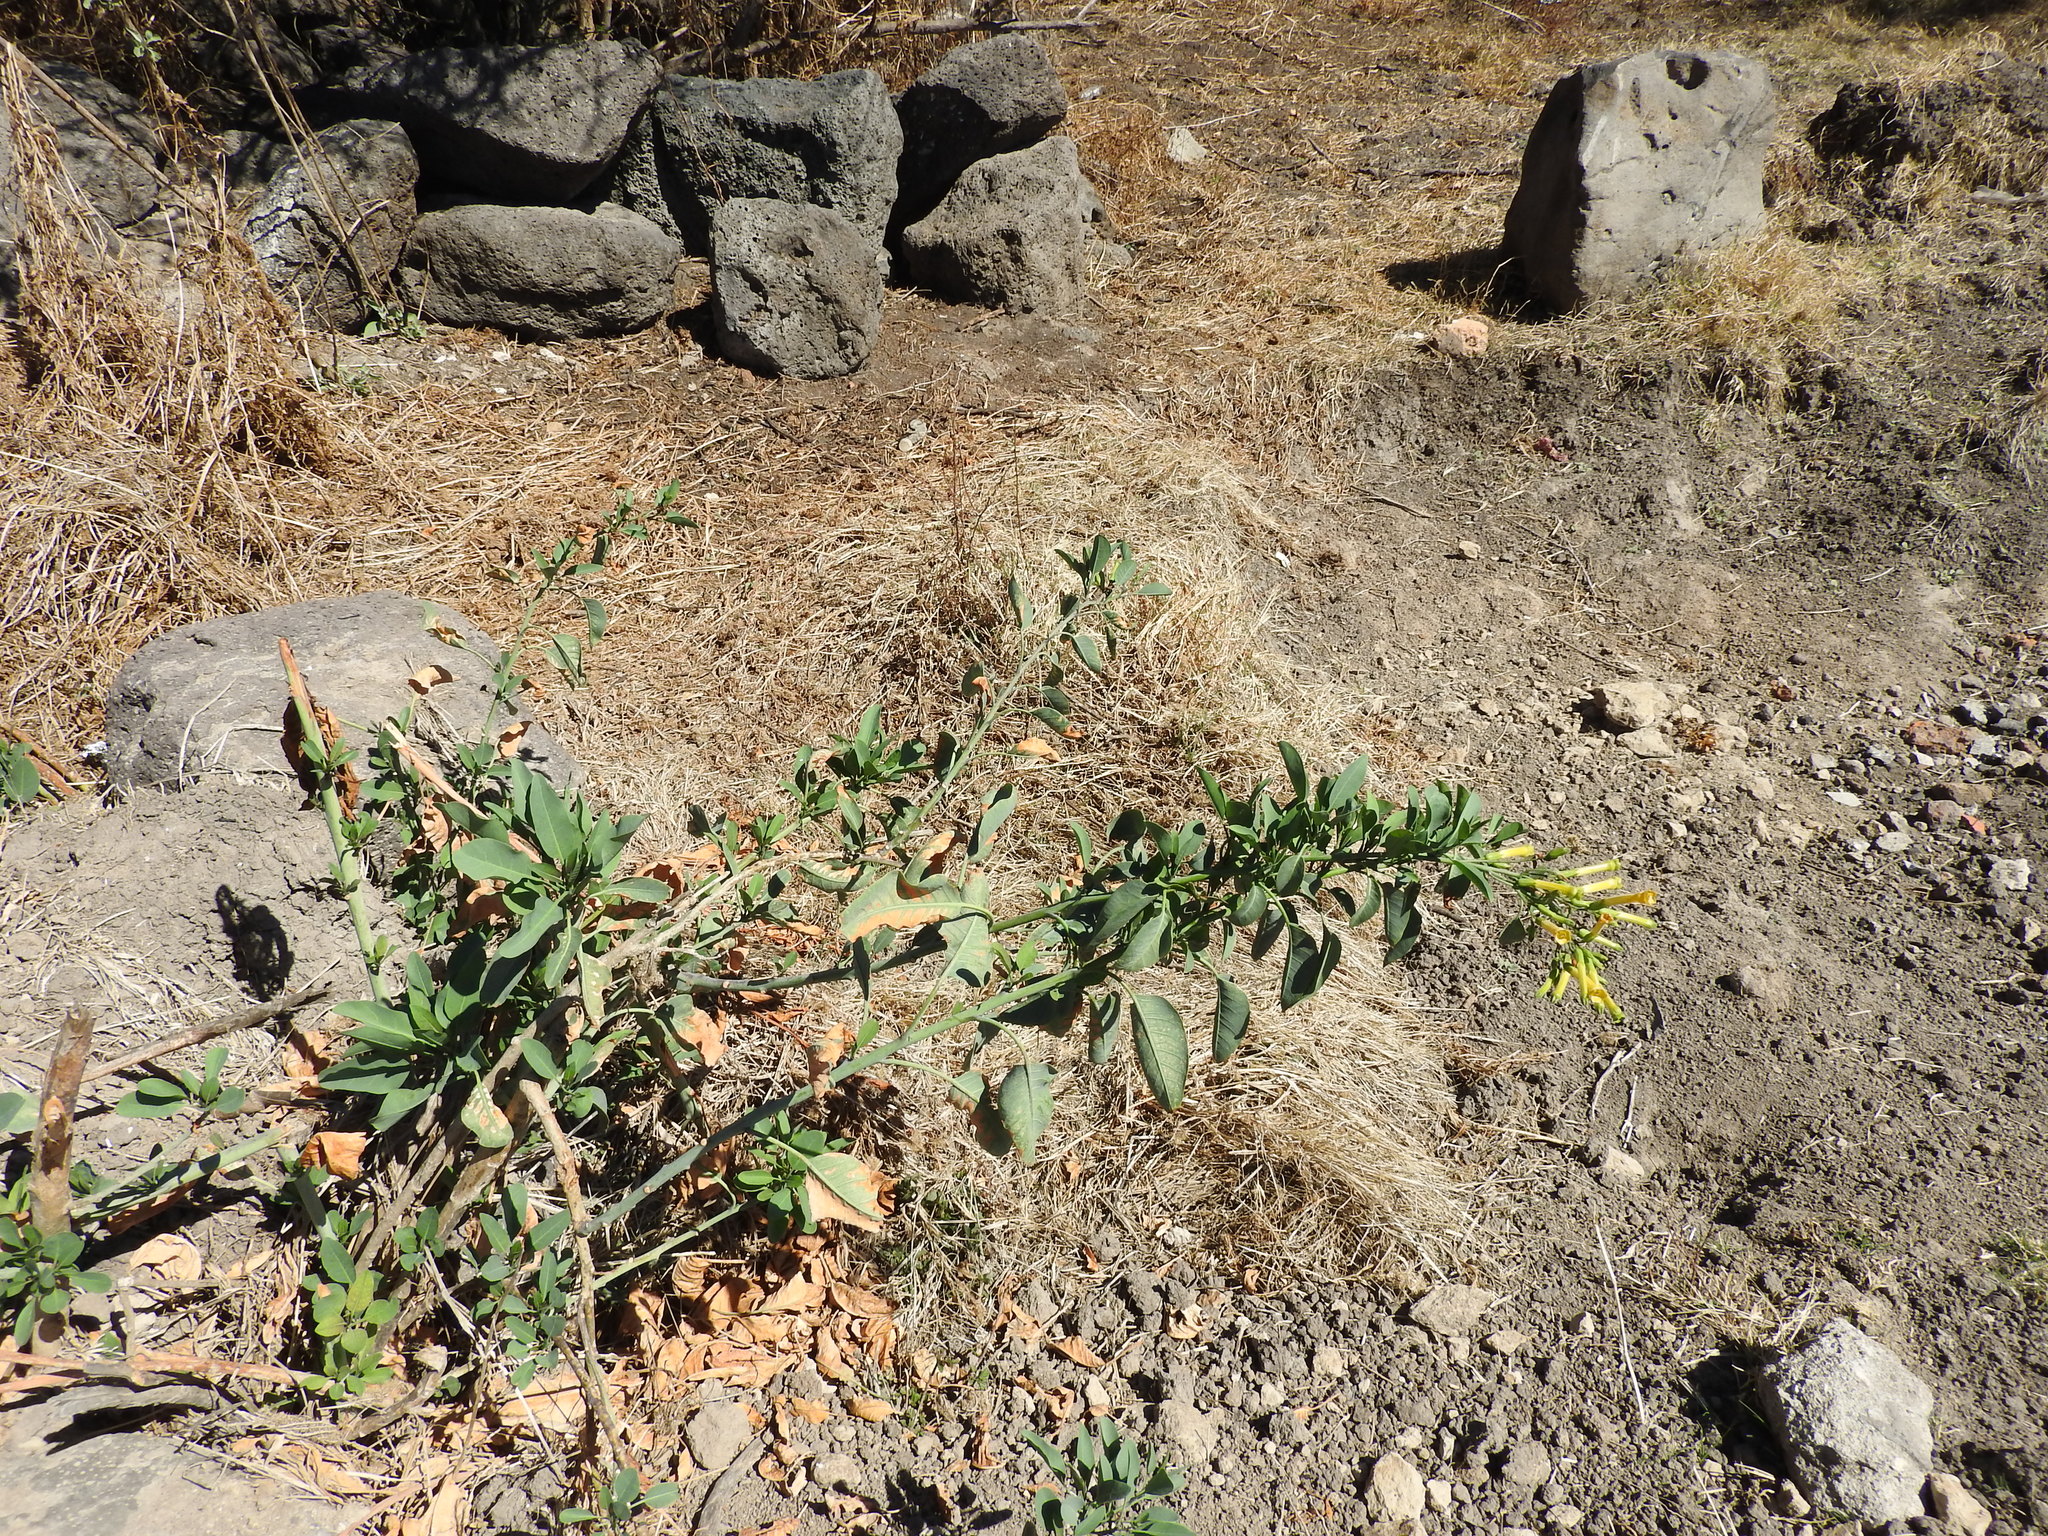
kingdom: Plantae
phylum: Tracheophyta
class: Magnoliopsida
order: Solanales
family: Solanaceae
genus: Nicotiana
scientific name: Nicotiana glauca
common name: Tree tobacco
